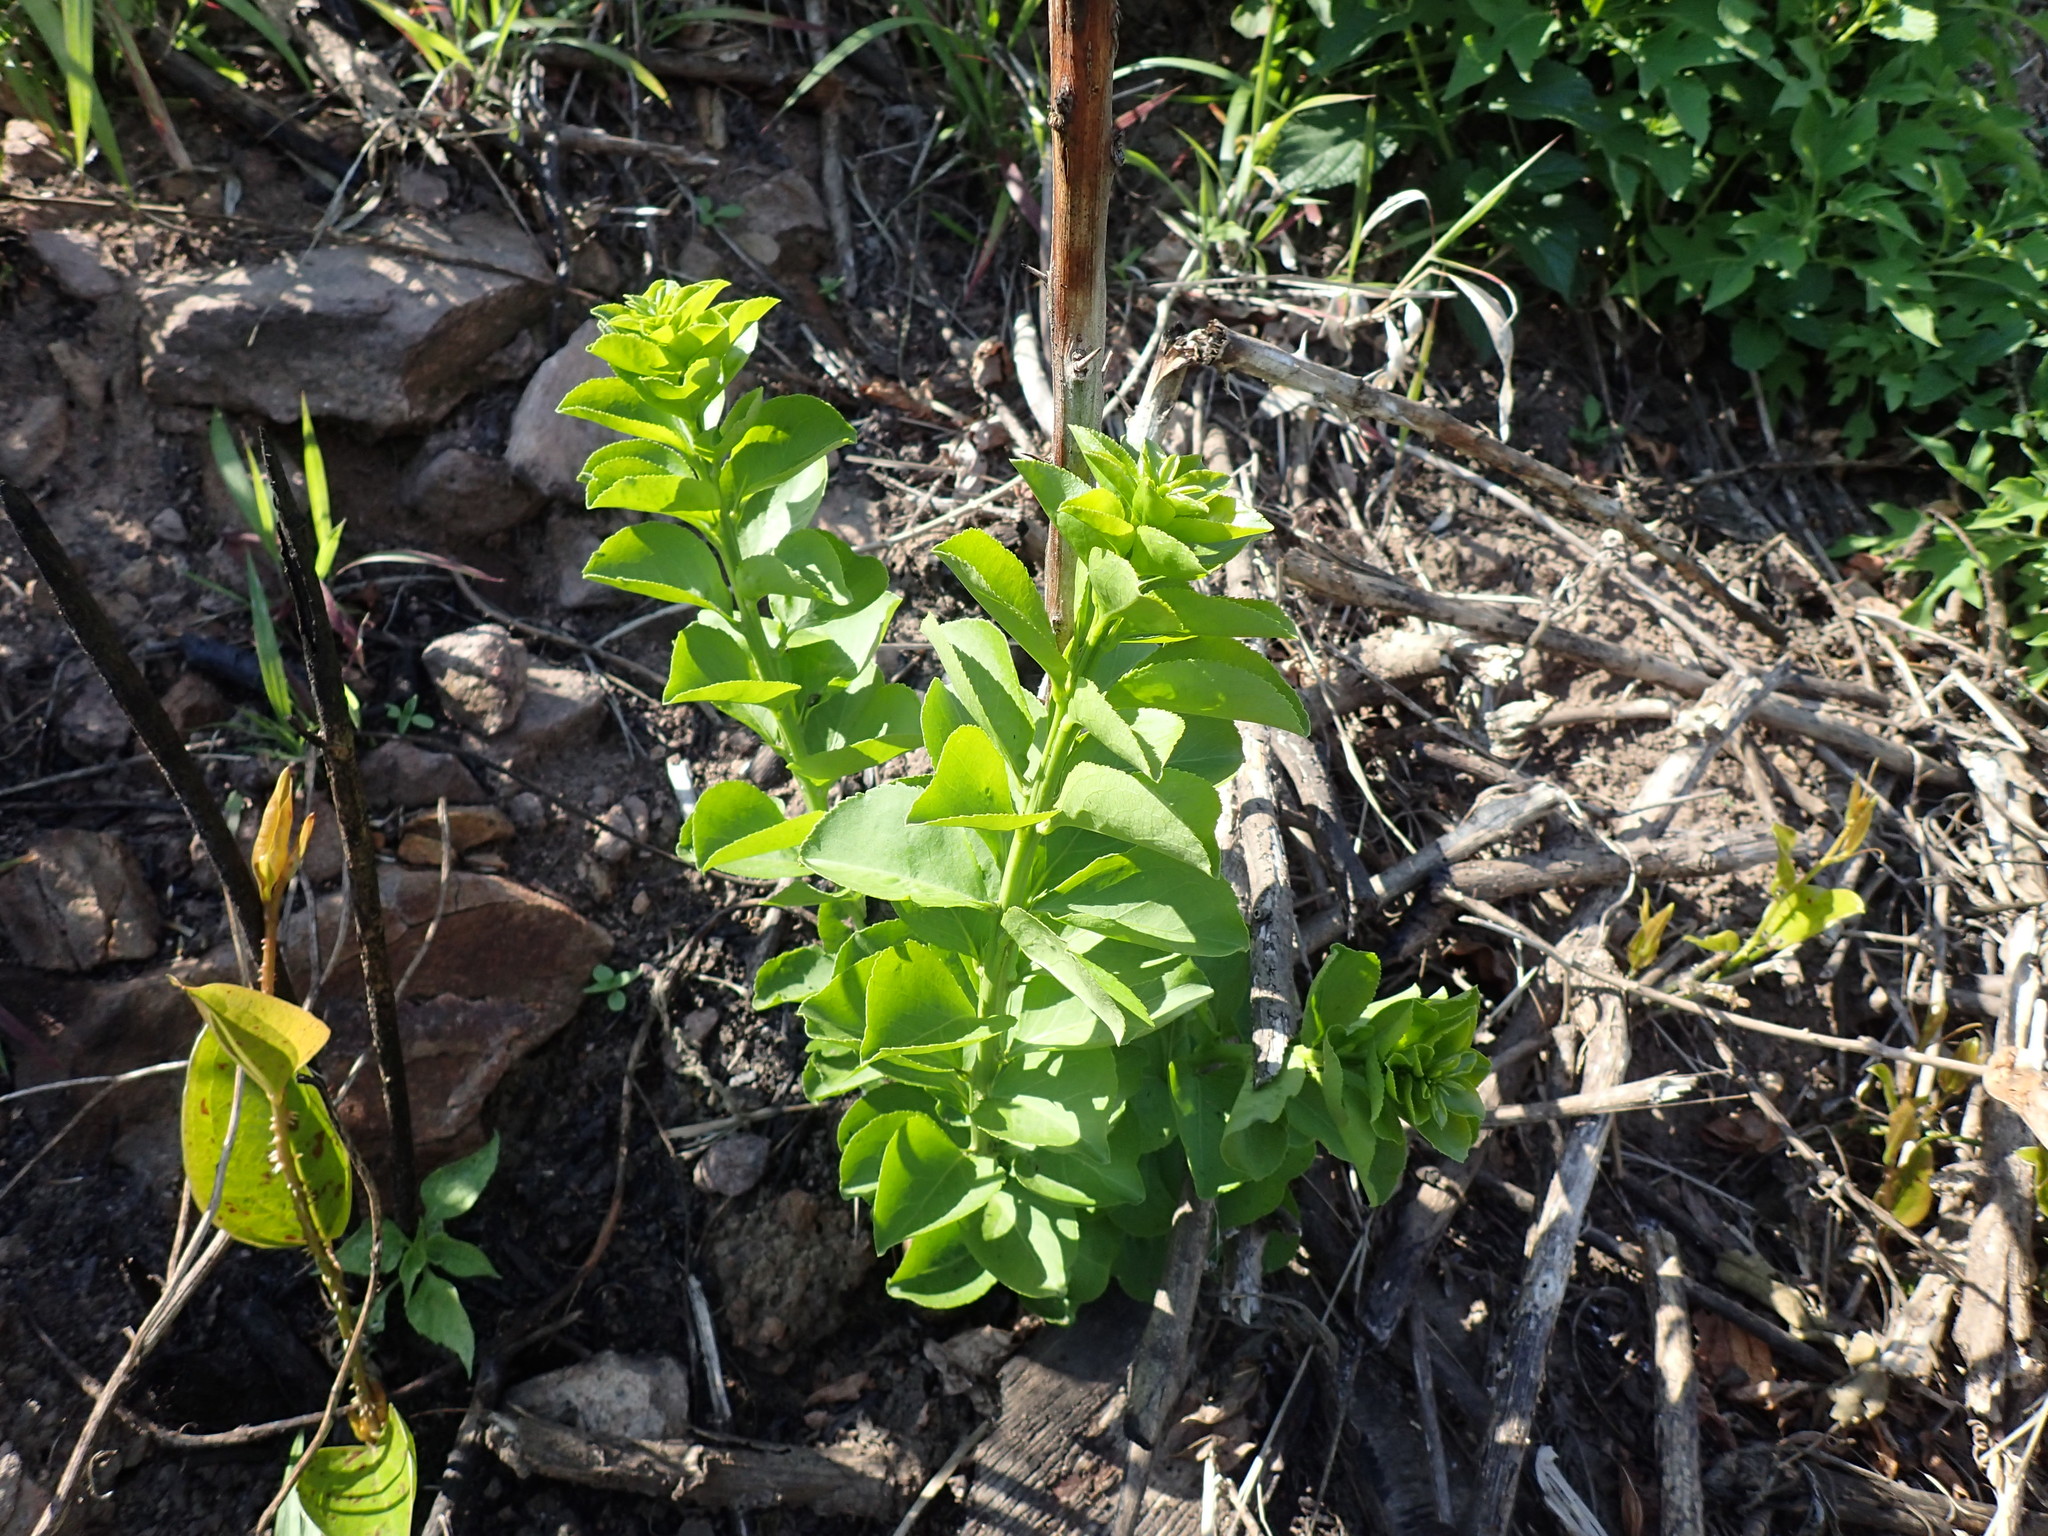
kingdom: Plantae
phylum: Tracheophyta
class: Magnoliopsida
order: Celastrales
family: Celastraceae
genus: Gymnosporia
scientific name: Gymnosporia woodii
